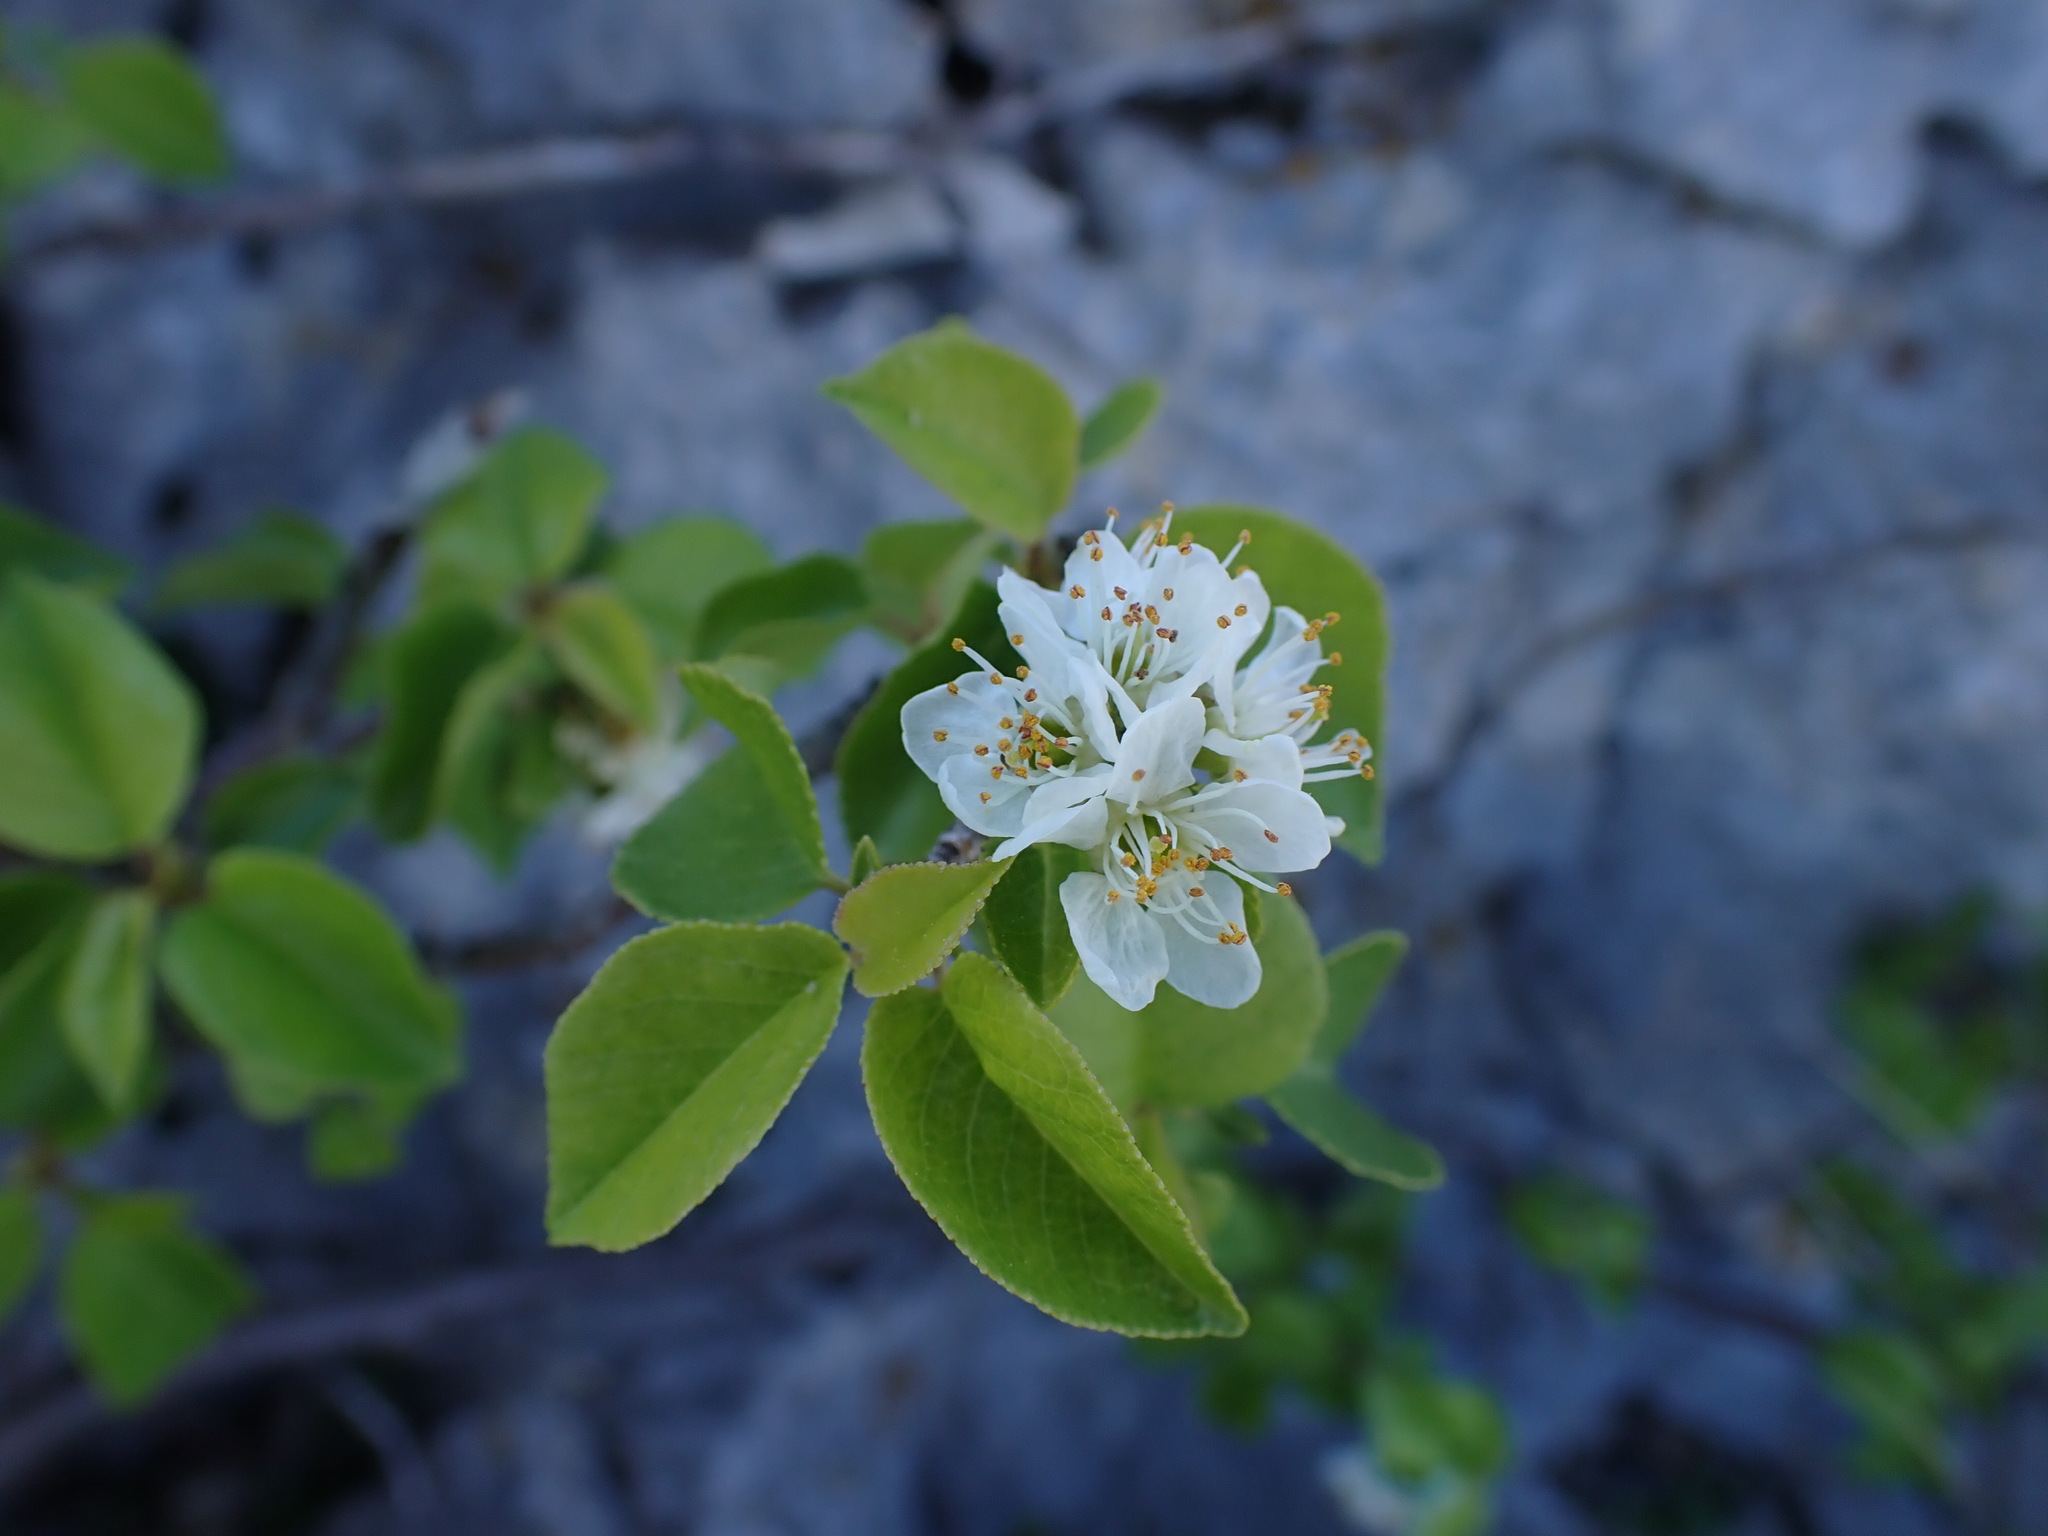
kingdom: Plantae
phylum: Tracheophyta
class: Magnoliopsida
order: Rosales
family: Rosaceae
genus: Prunus
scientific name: Prunus mahaleb
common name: Mahaleb cherry
